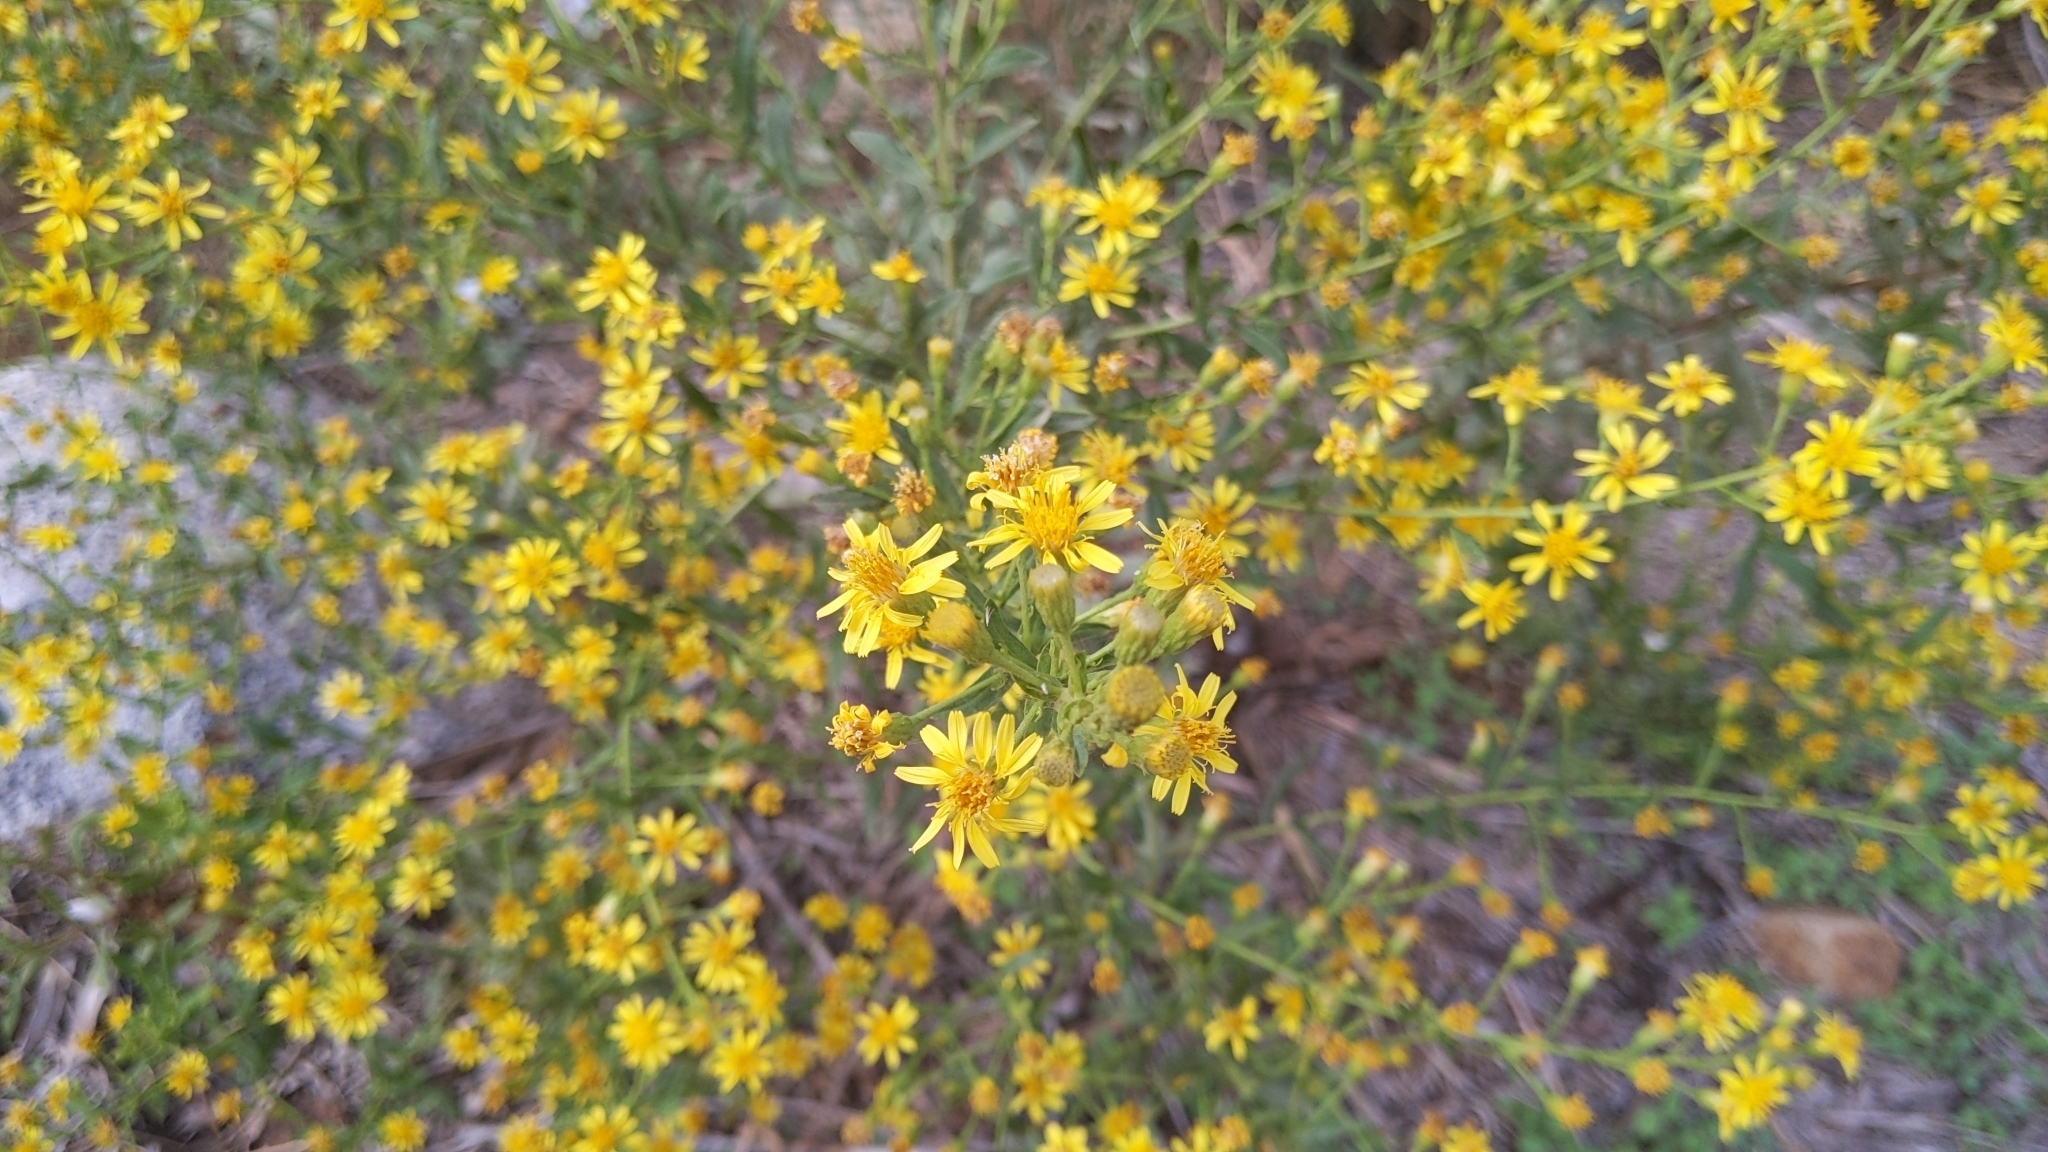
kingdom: Plantae
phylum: Tracheophyta
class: Magnoliopsida
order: Asterales
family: Asteraceae
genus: Dittrichia
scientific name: Dittrichia viscosa
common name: Woody fleabane
